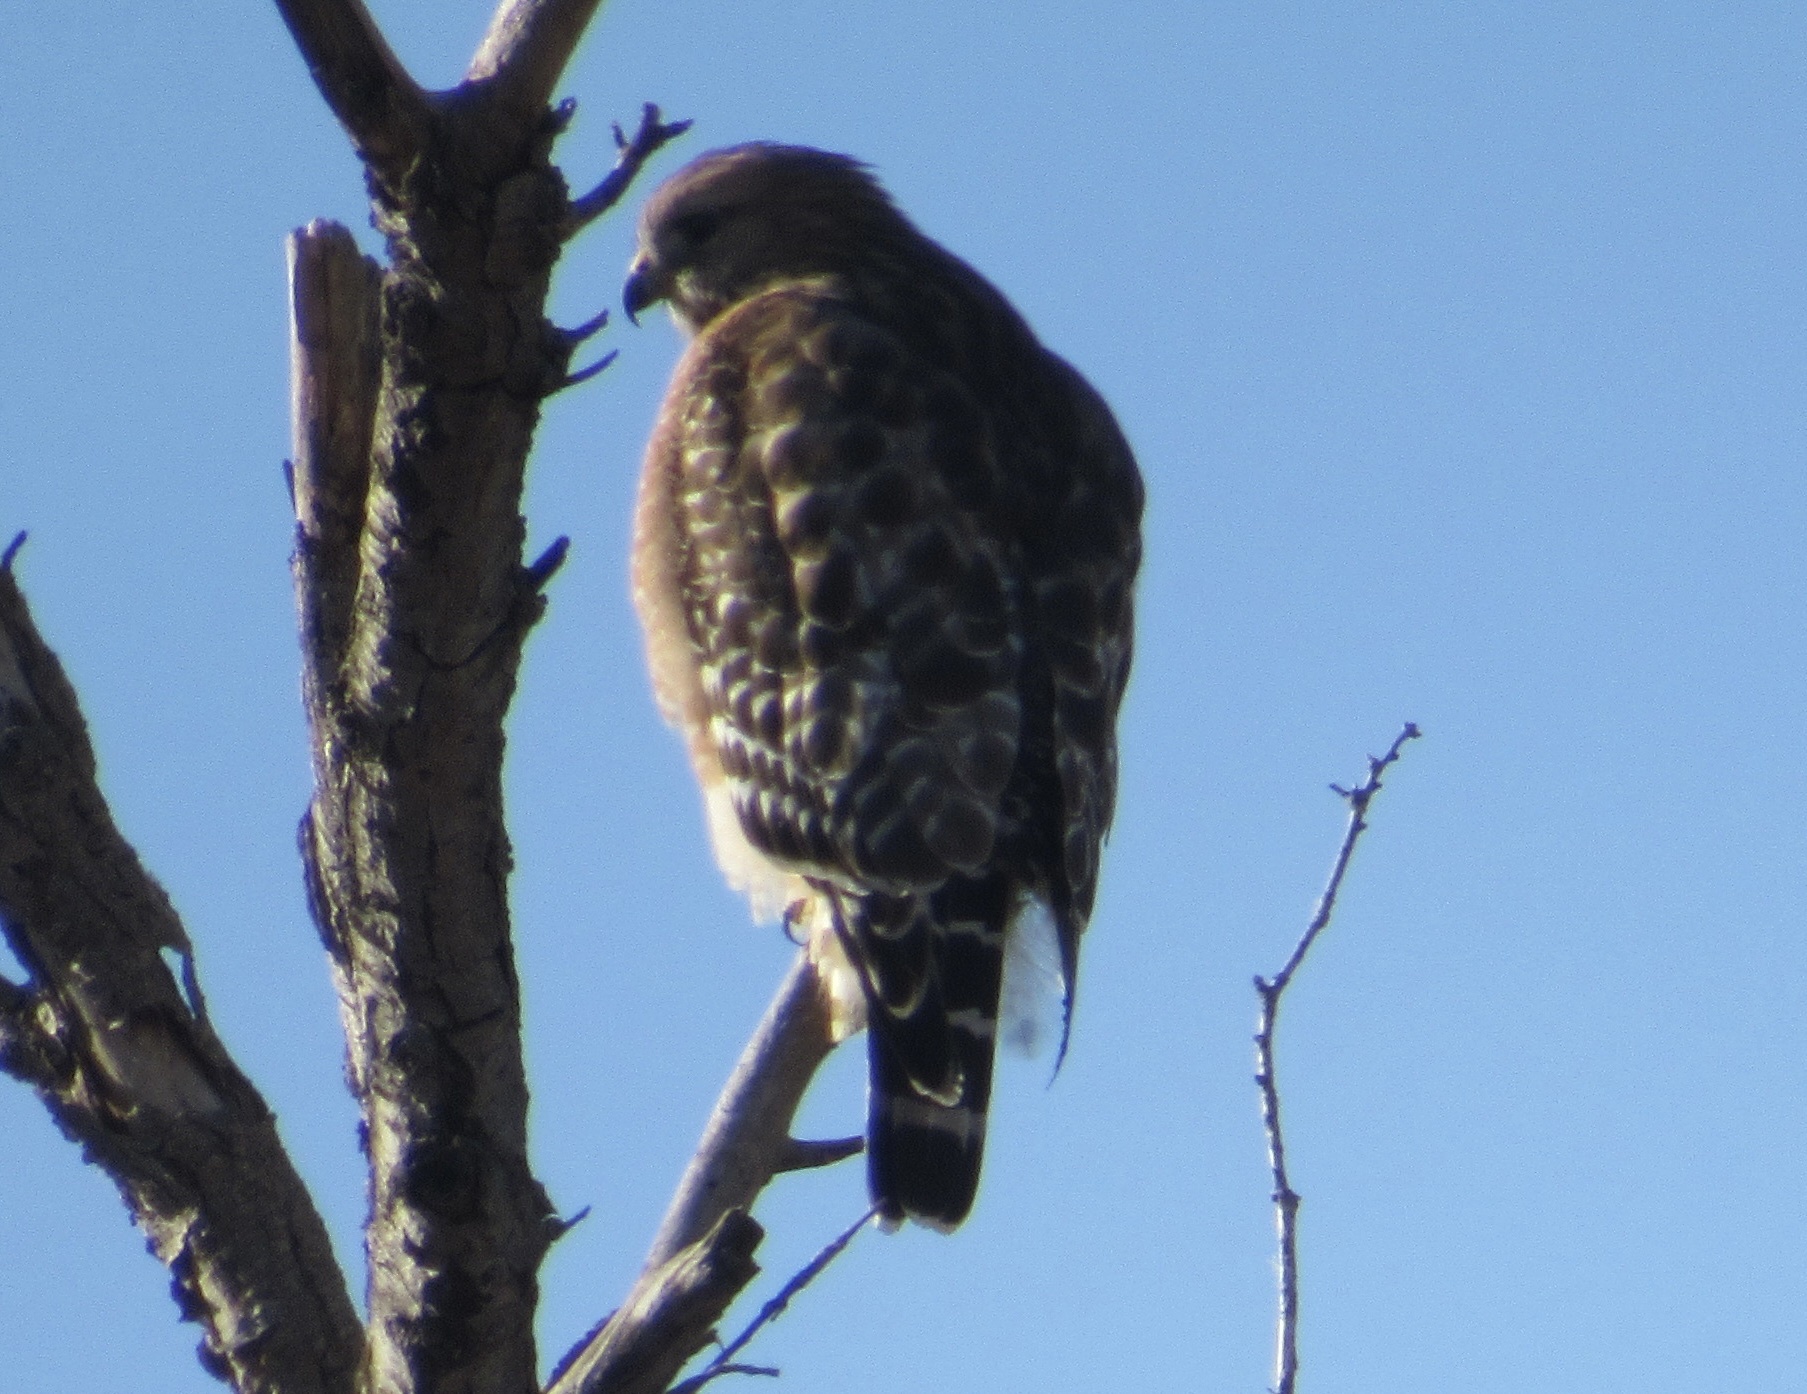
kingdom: Animalia
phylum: Chordata
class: Aves
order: Accipitriformes
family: Accipitridae
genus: Buteo
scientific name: Buteo lineatus
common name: Red-shouldered hawk
